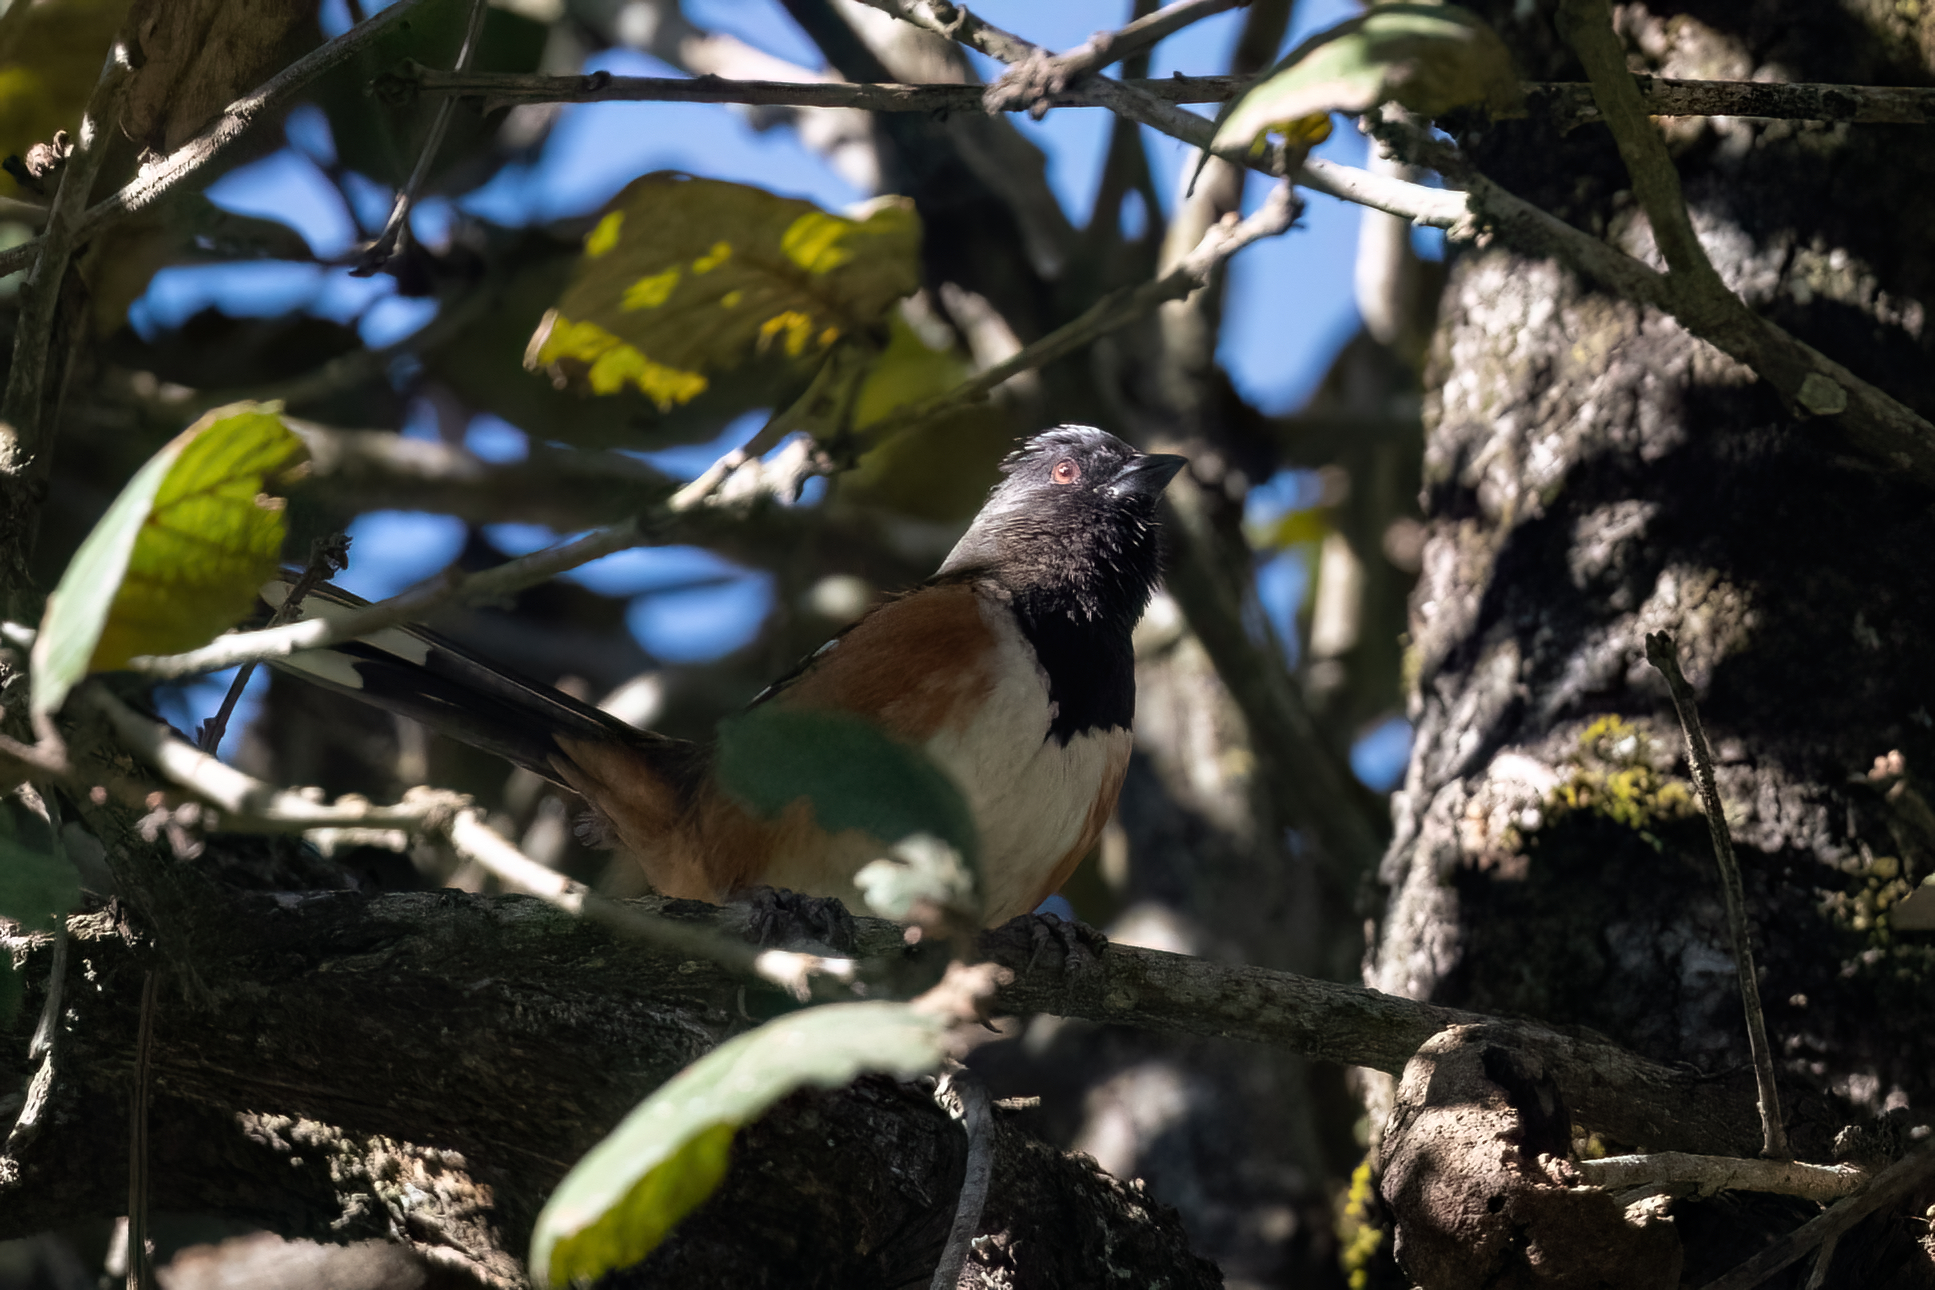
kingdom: Animalia
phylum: Chordata
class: Aves
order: Passeriformes
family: Passerellidae
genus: Pipilo
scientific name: Pipilo maculatus
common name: Spotted towhee
